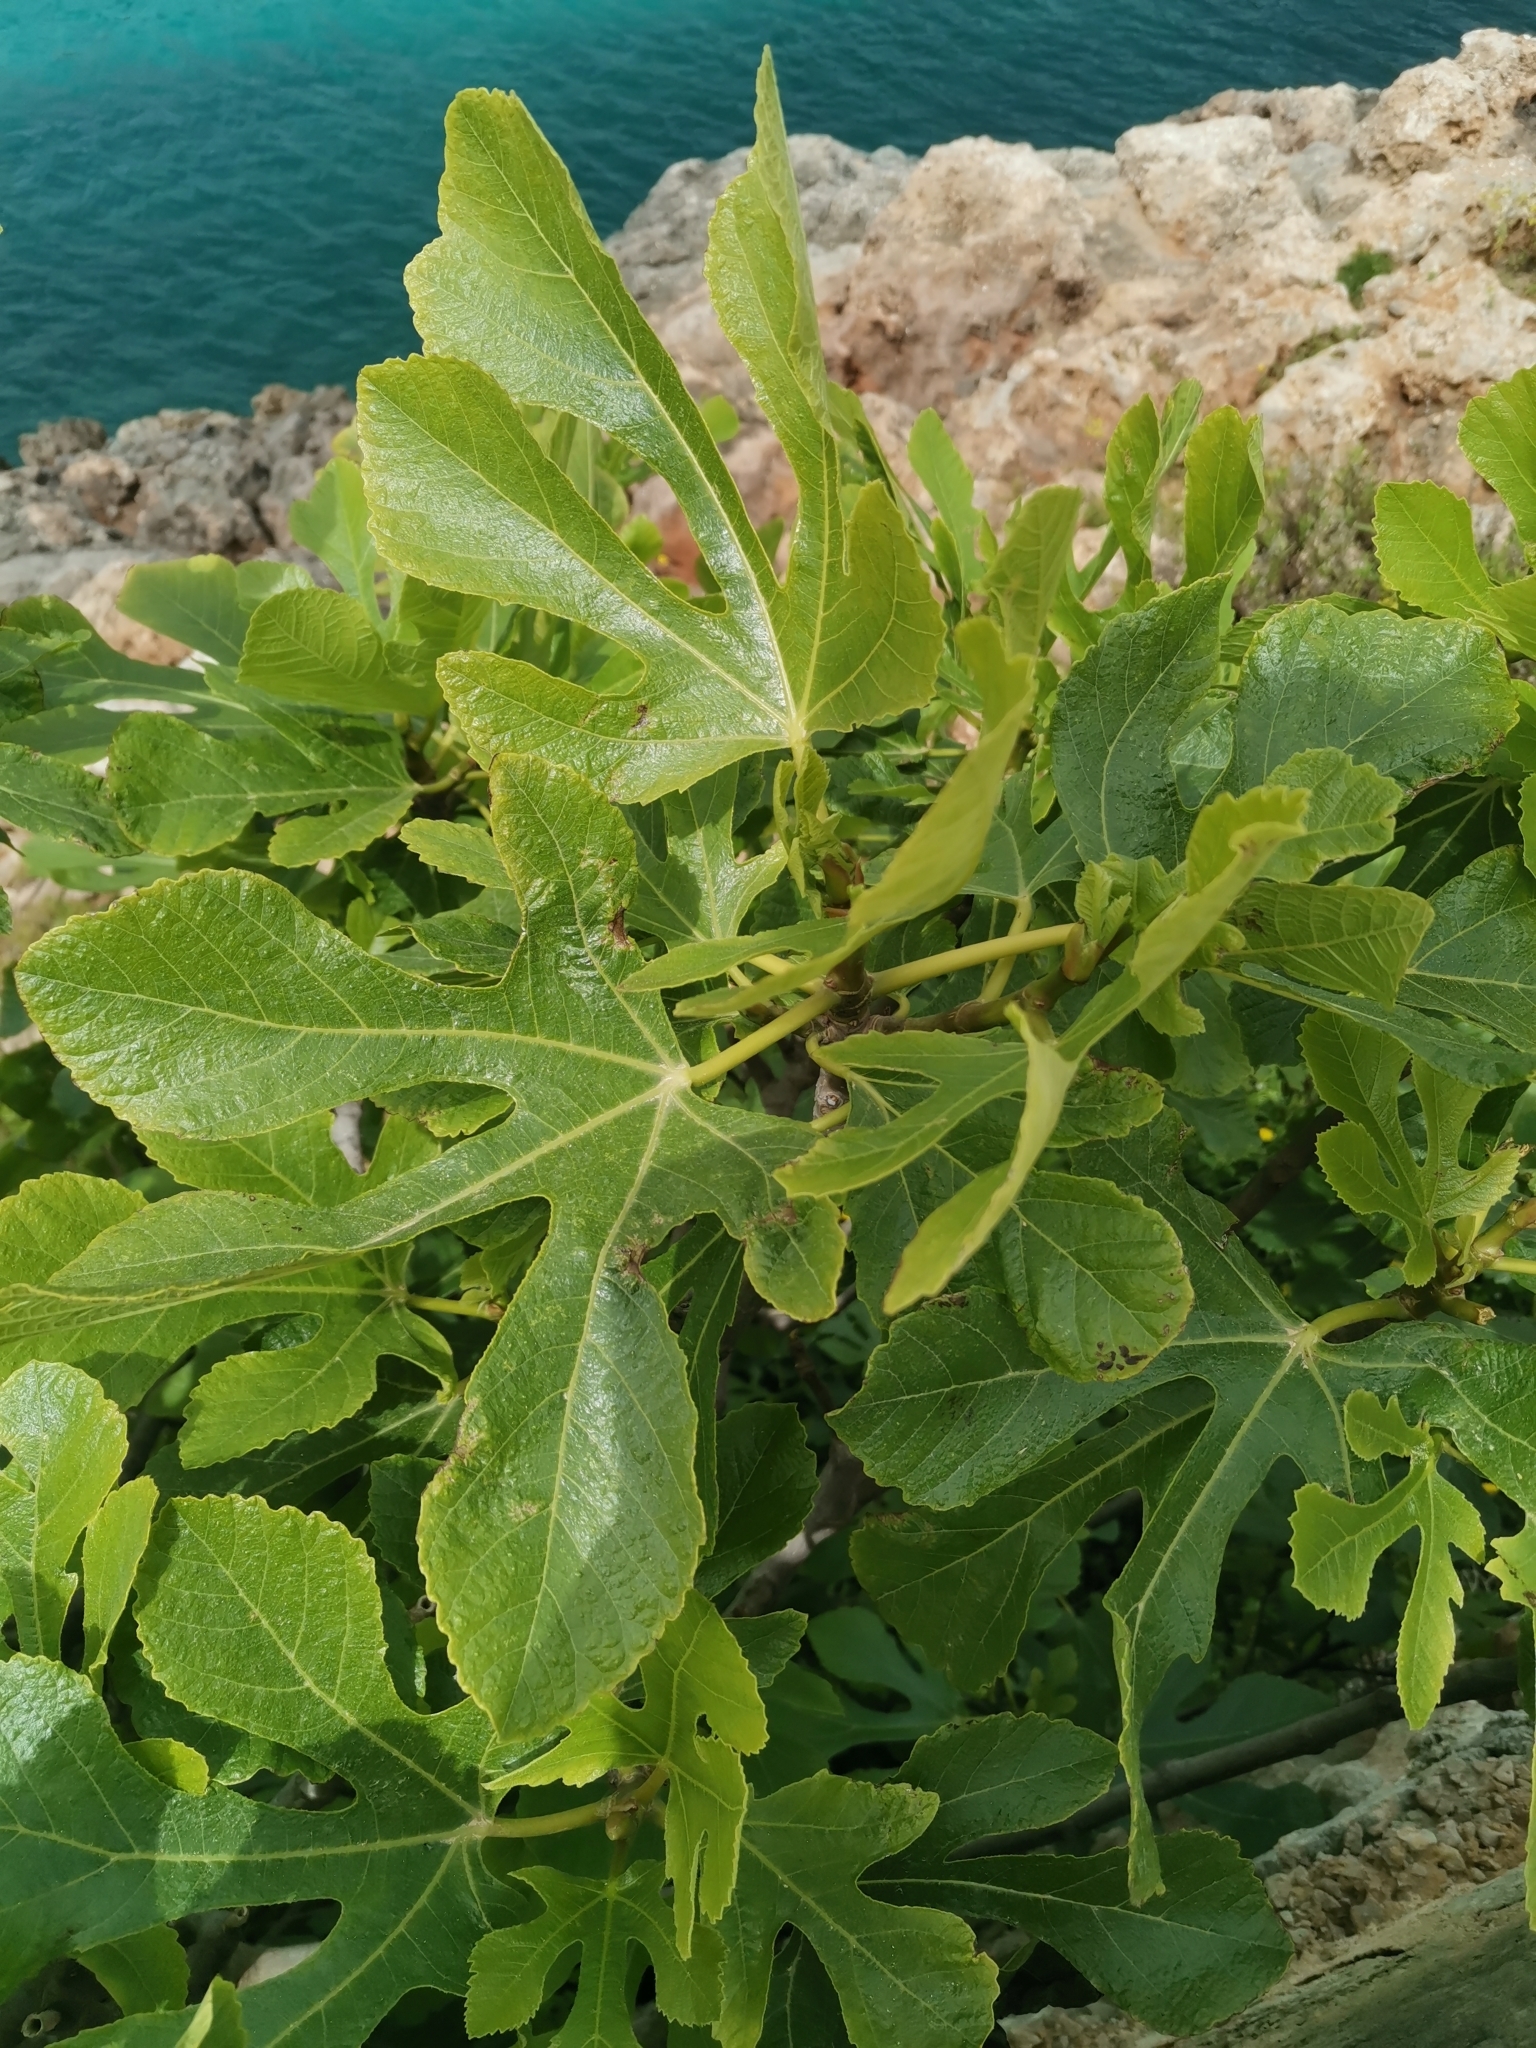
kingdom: Plantae
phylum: Tracheophyta
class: Magnoliopsida
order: Rosales
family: Moraceae
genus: Ficus
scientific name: Ficus carica
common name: Fig
